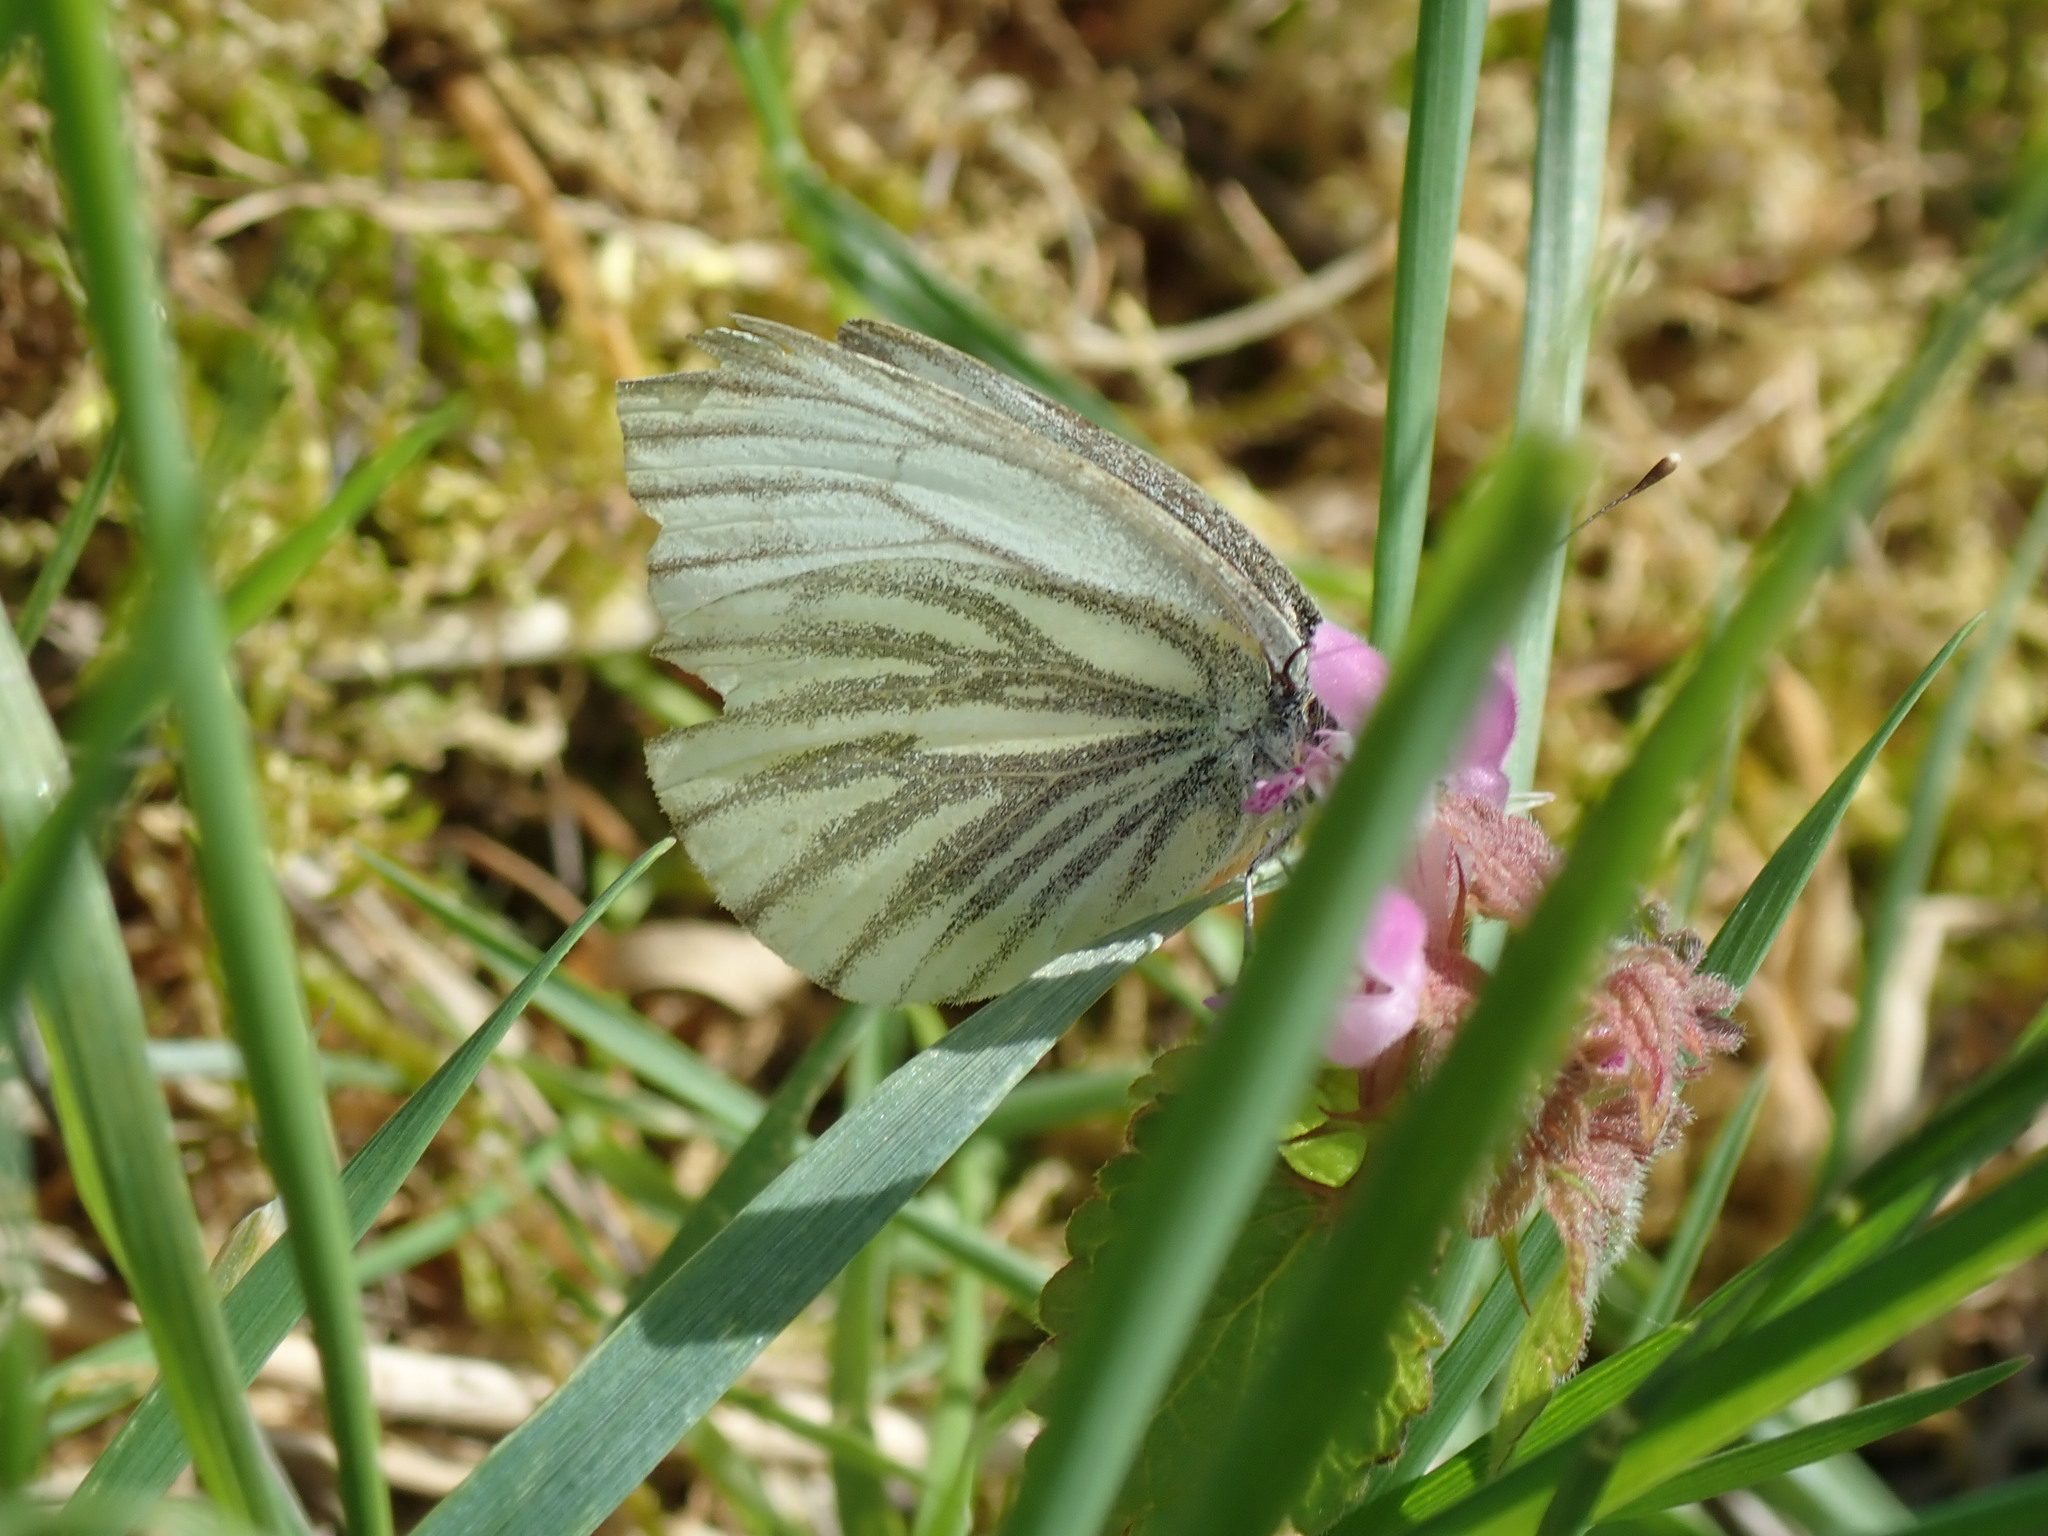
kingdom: Animalia
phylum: Arthropoda
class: Insecta
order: Lepidoptera
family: Pieridae
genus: Pieris
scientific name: Pieris napi
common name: Green-veined white
